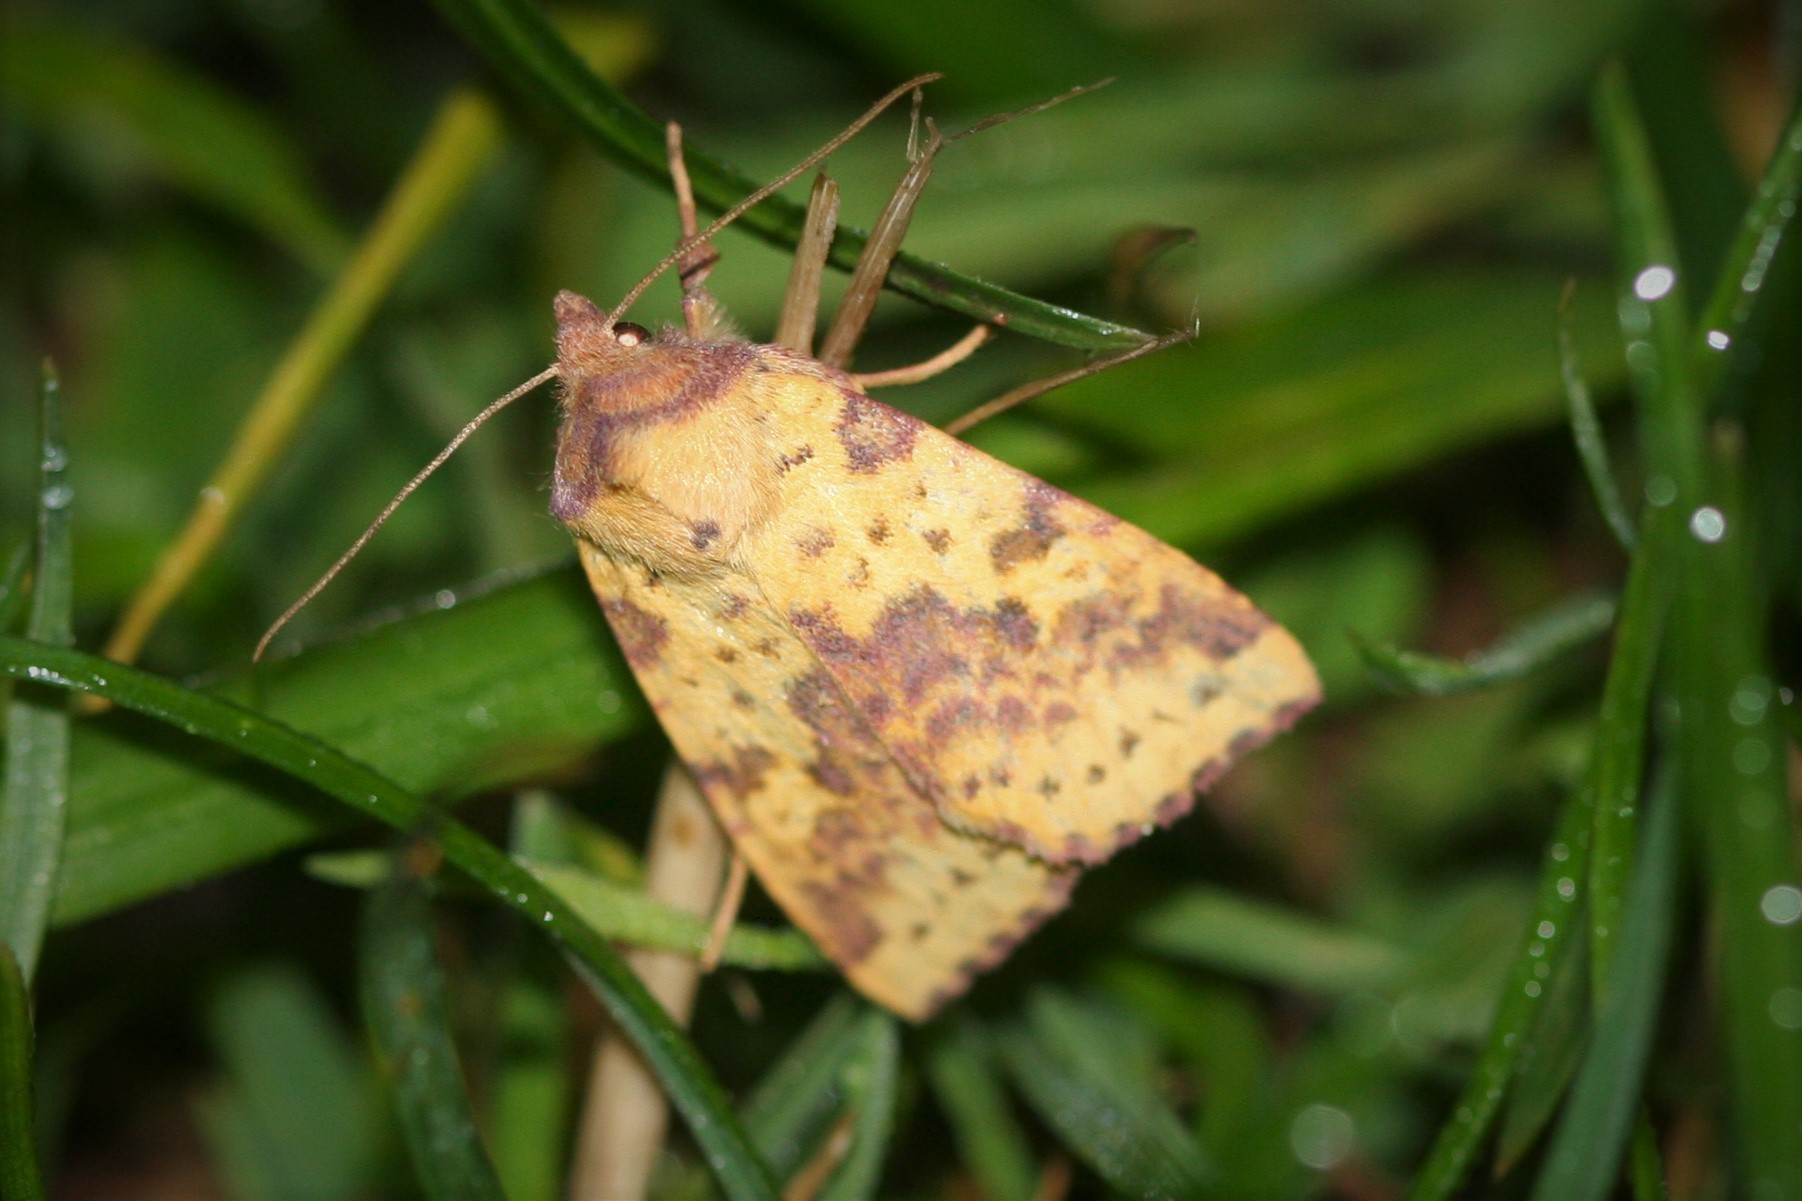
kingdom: Animalia
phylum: Arthropoda
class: Insecta
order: Lepidoptera
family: Noctuidae
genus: Xanthia
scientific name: Xanthia togata
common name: Pink-barred sallow
